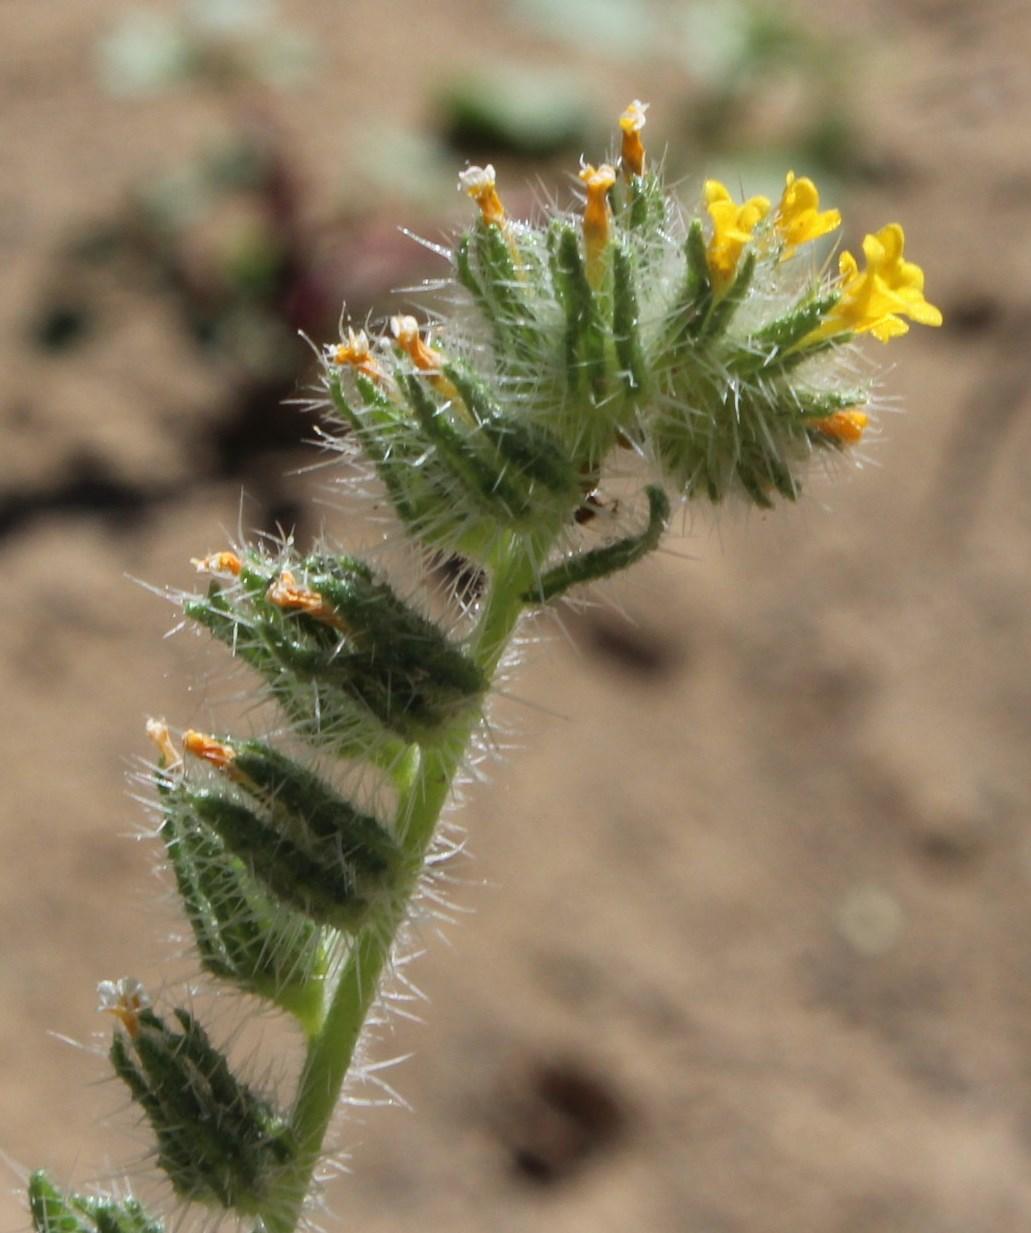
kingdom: Plantae
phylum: Tracheophyta
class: Magnoliopsida
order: Boraginales
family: Boraginaceae
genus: Amsinckia
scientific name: Amsinckia menziesii
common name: Menzies' fiddleneck
